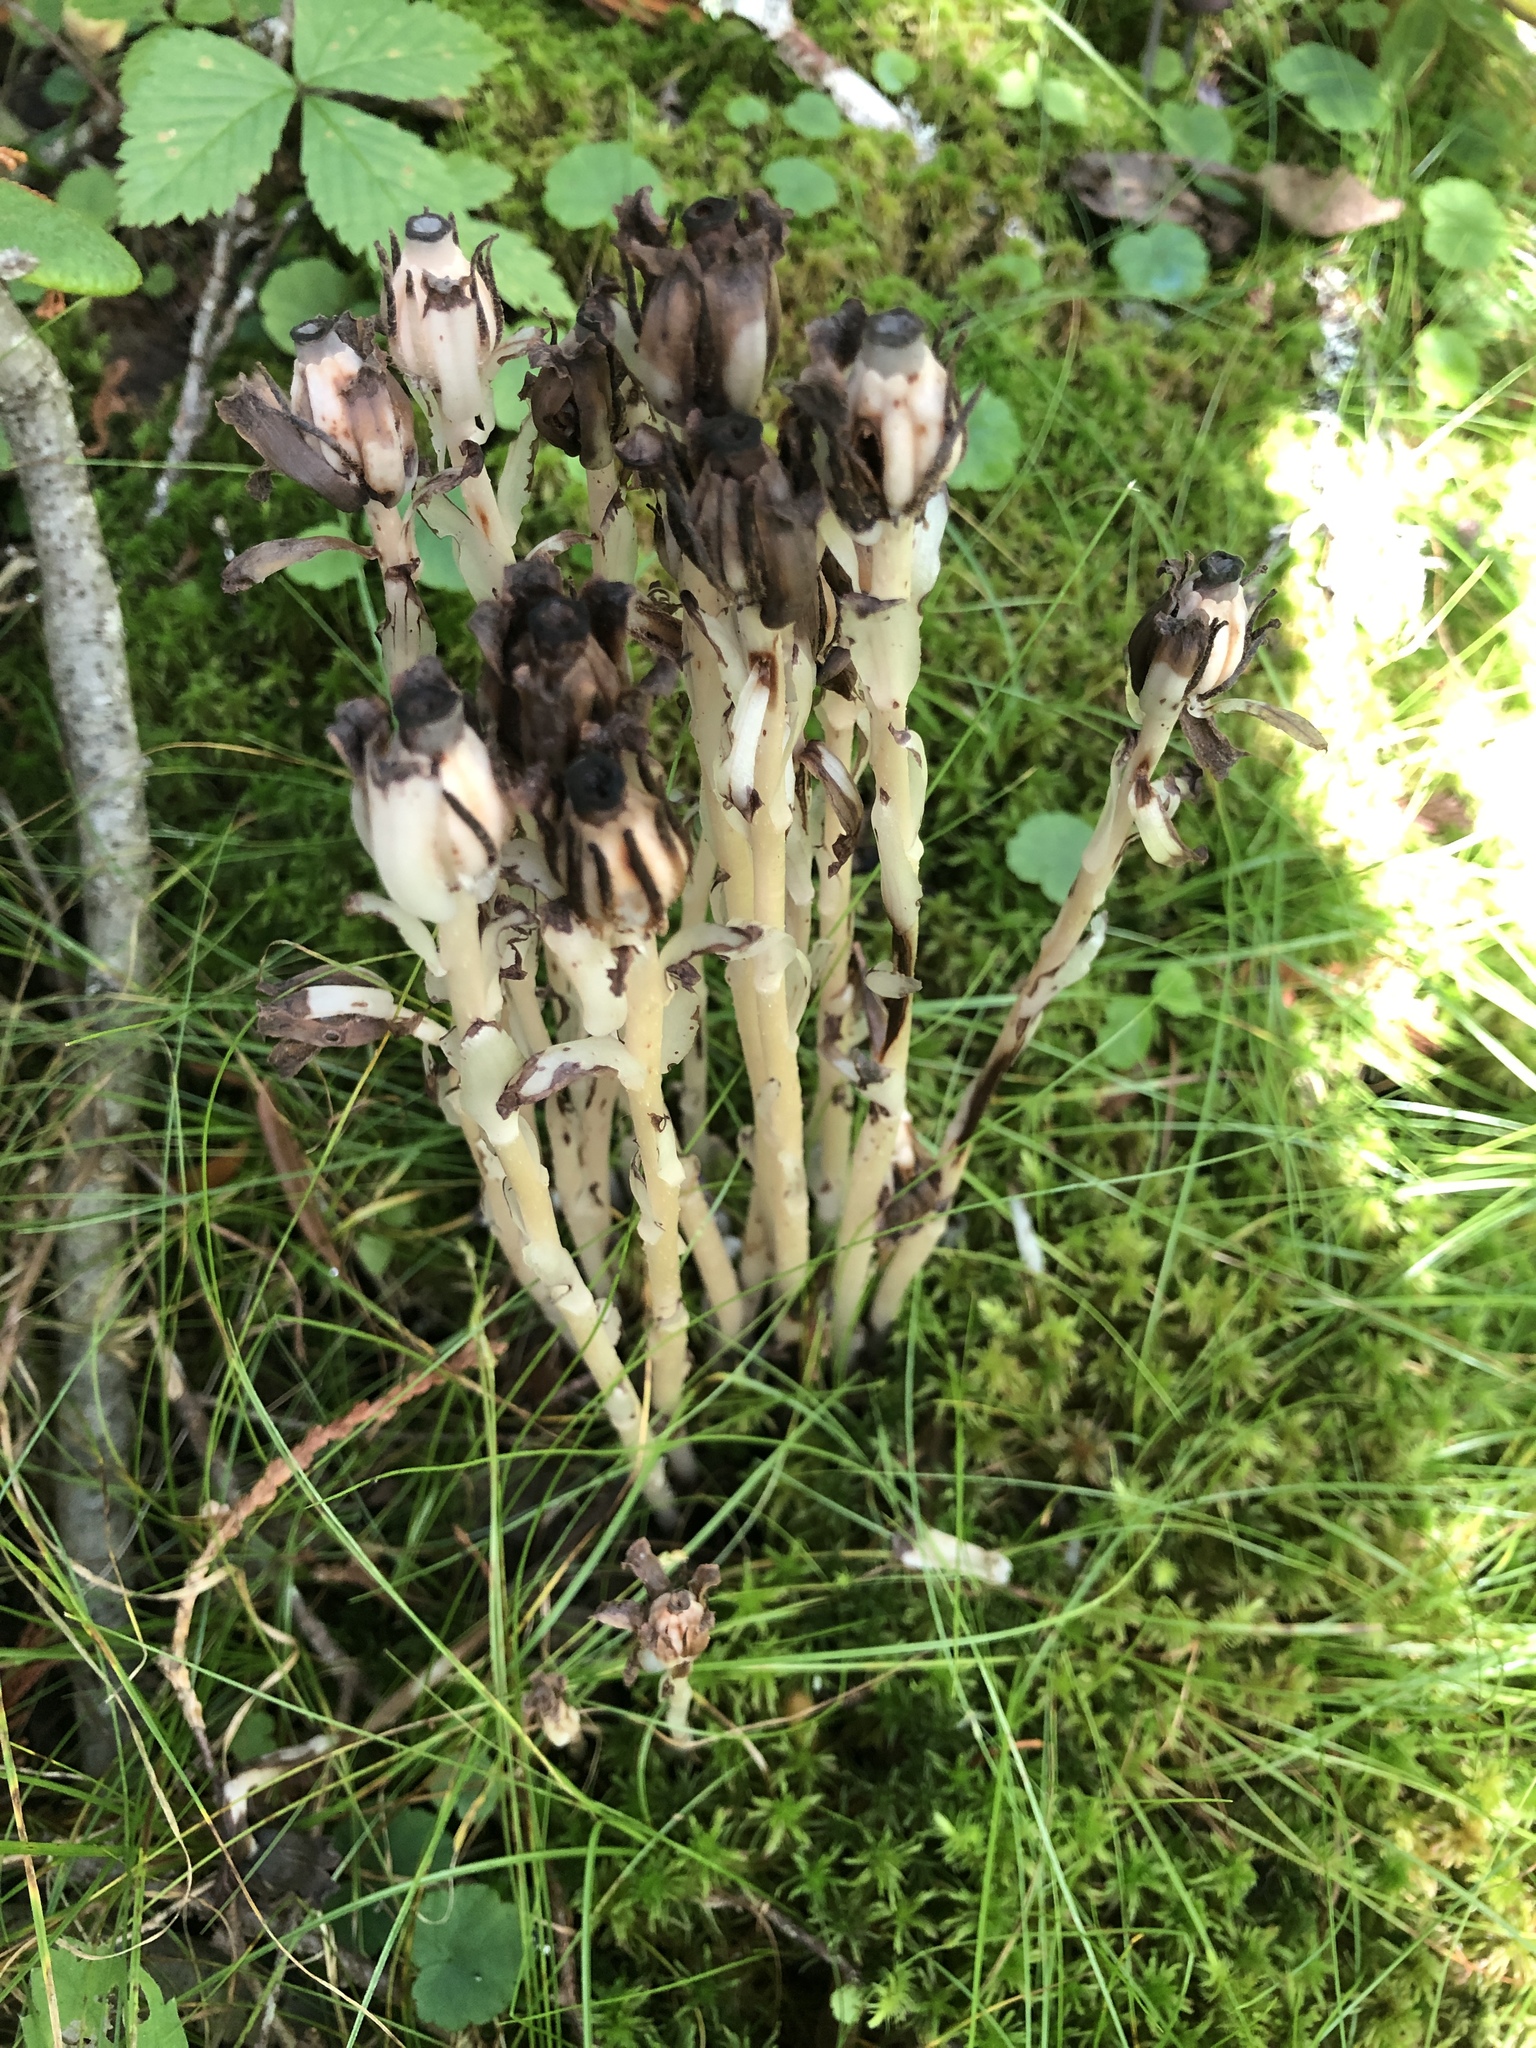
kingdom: Plantae
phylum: Tracheophyta
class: Magnoliopsida
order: Ericales
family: Ericaceae
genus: Monotropa
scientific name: Monotropa uniflora
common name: Convulsion root
